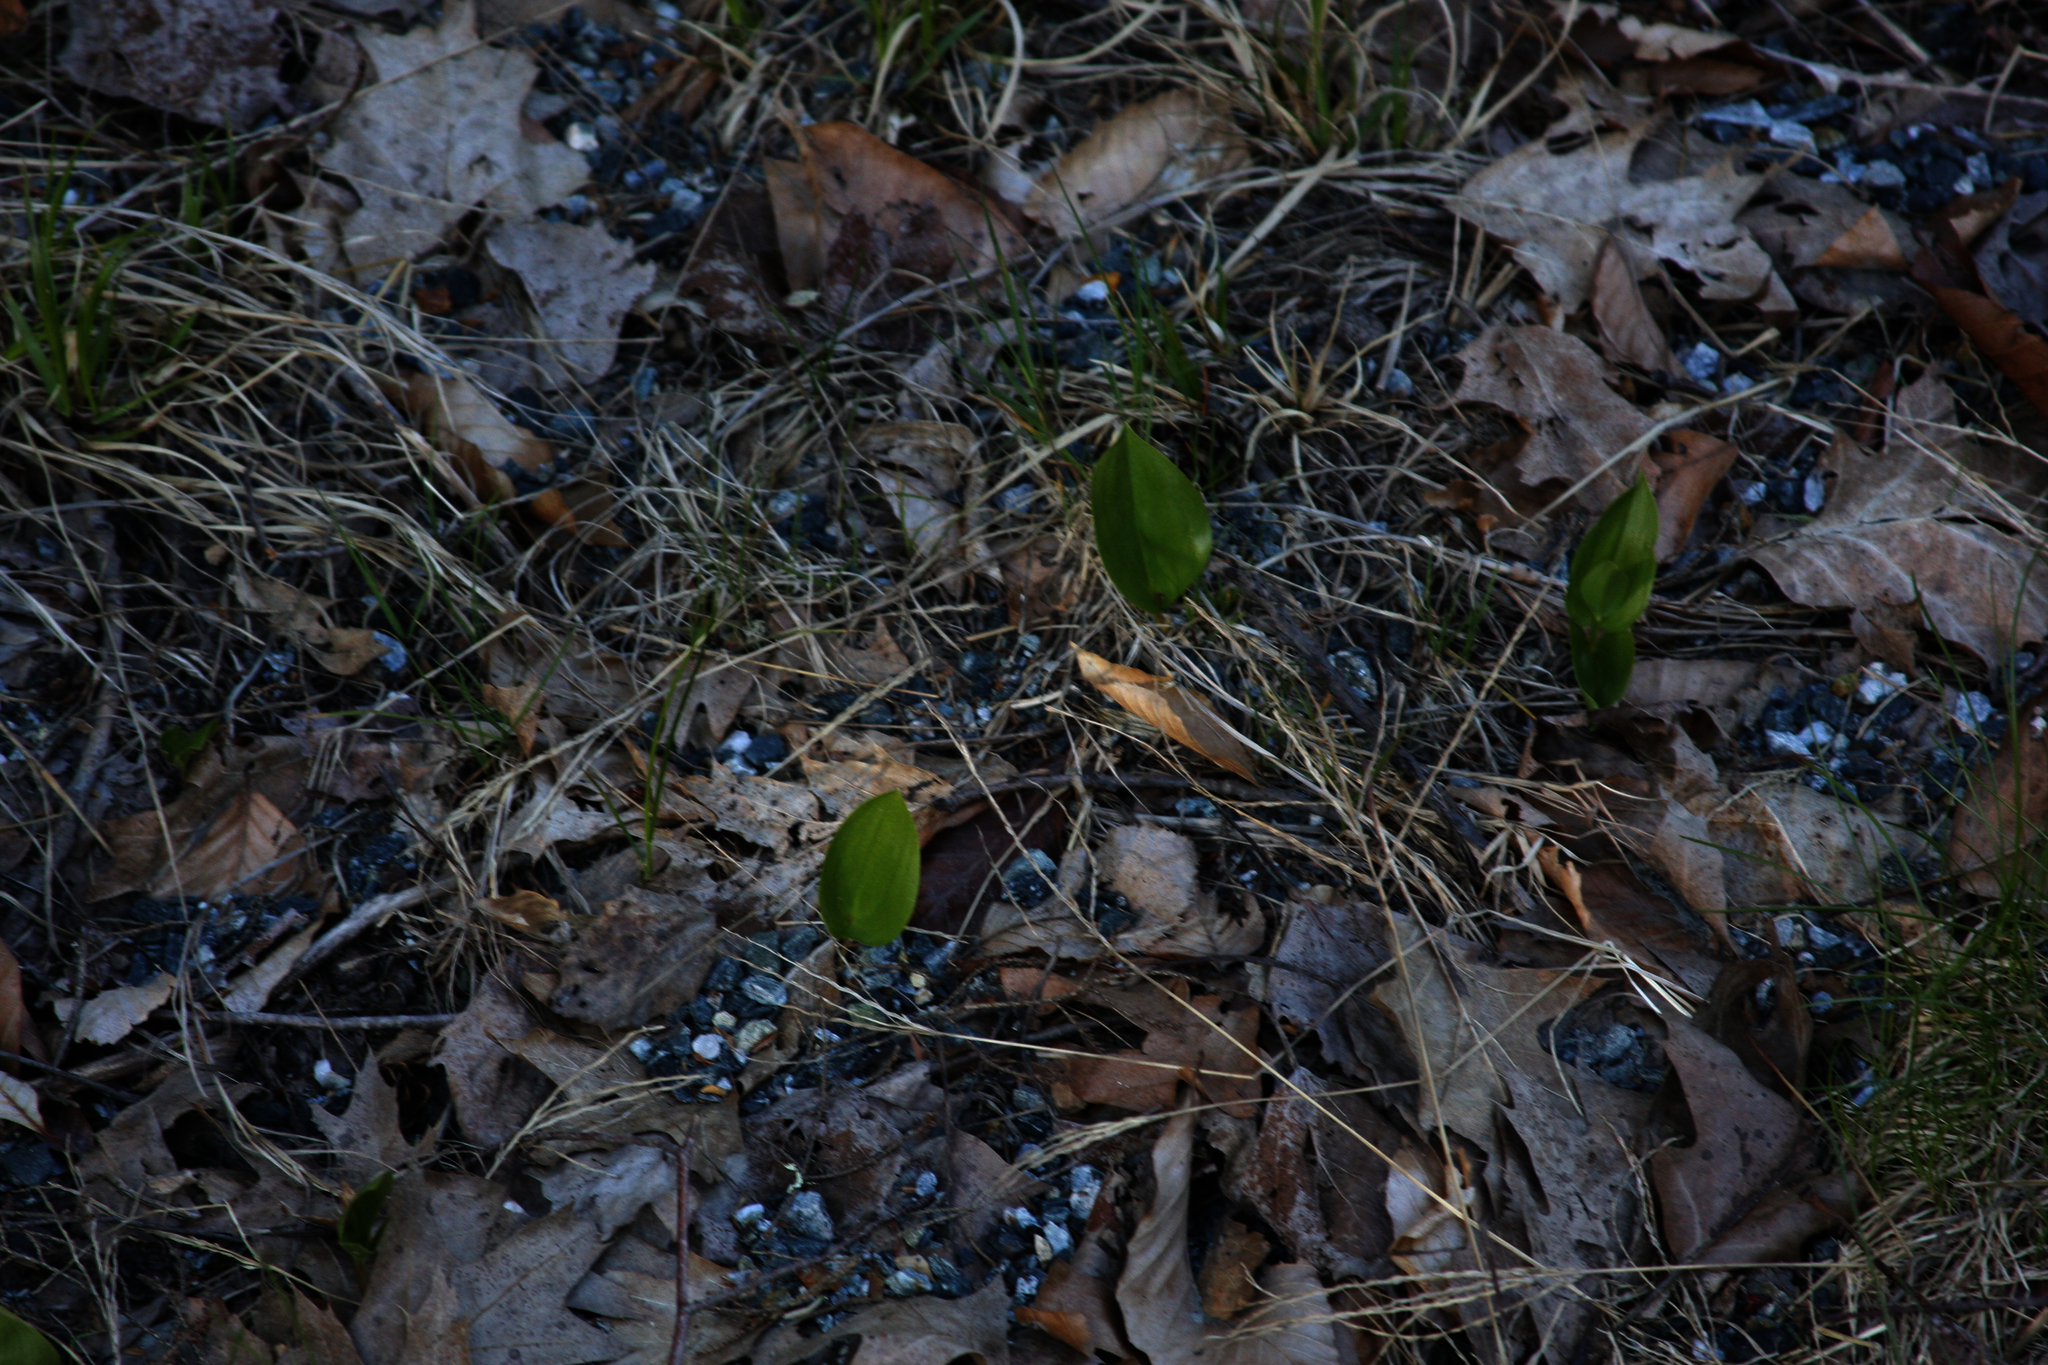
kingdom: Plantae
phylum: Tracheophyta
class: Liliopsida
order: Asparagales
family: Asparagaceae
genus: Maianthemum
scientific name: Maianthemum canadense
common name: False lily-of-the-valley
